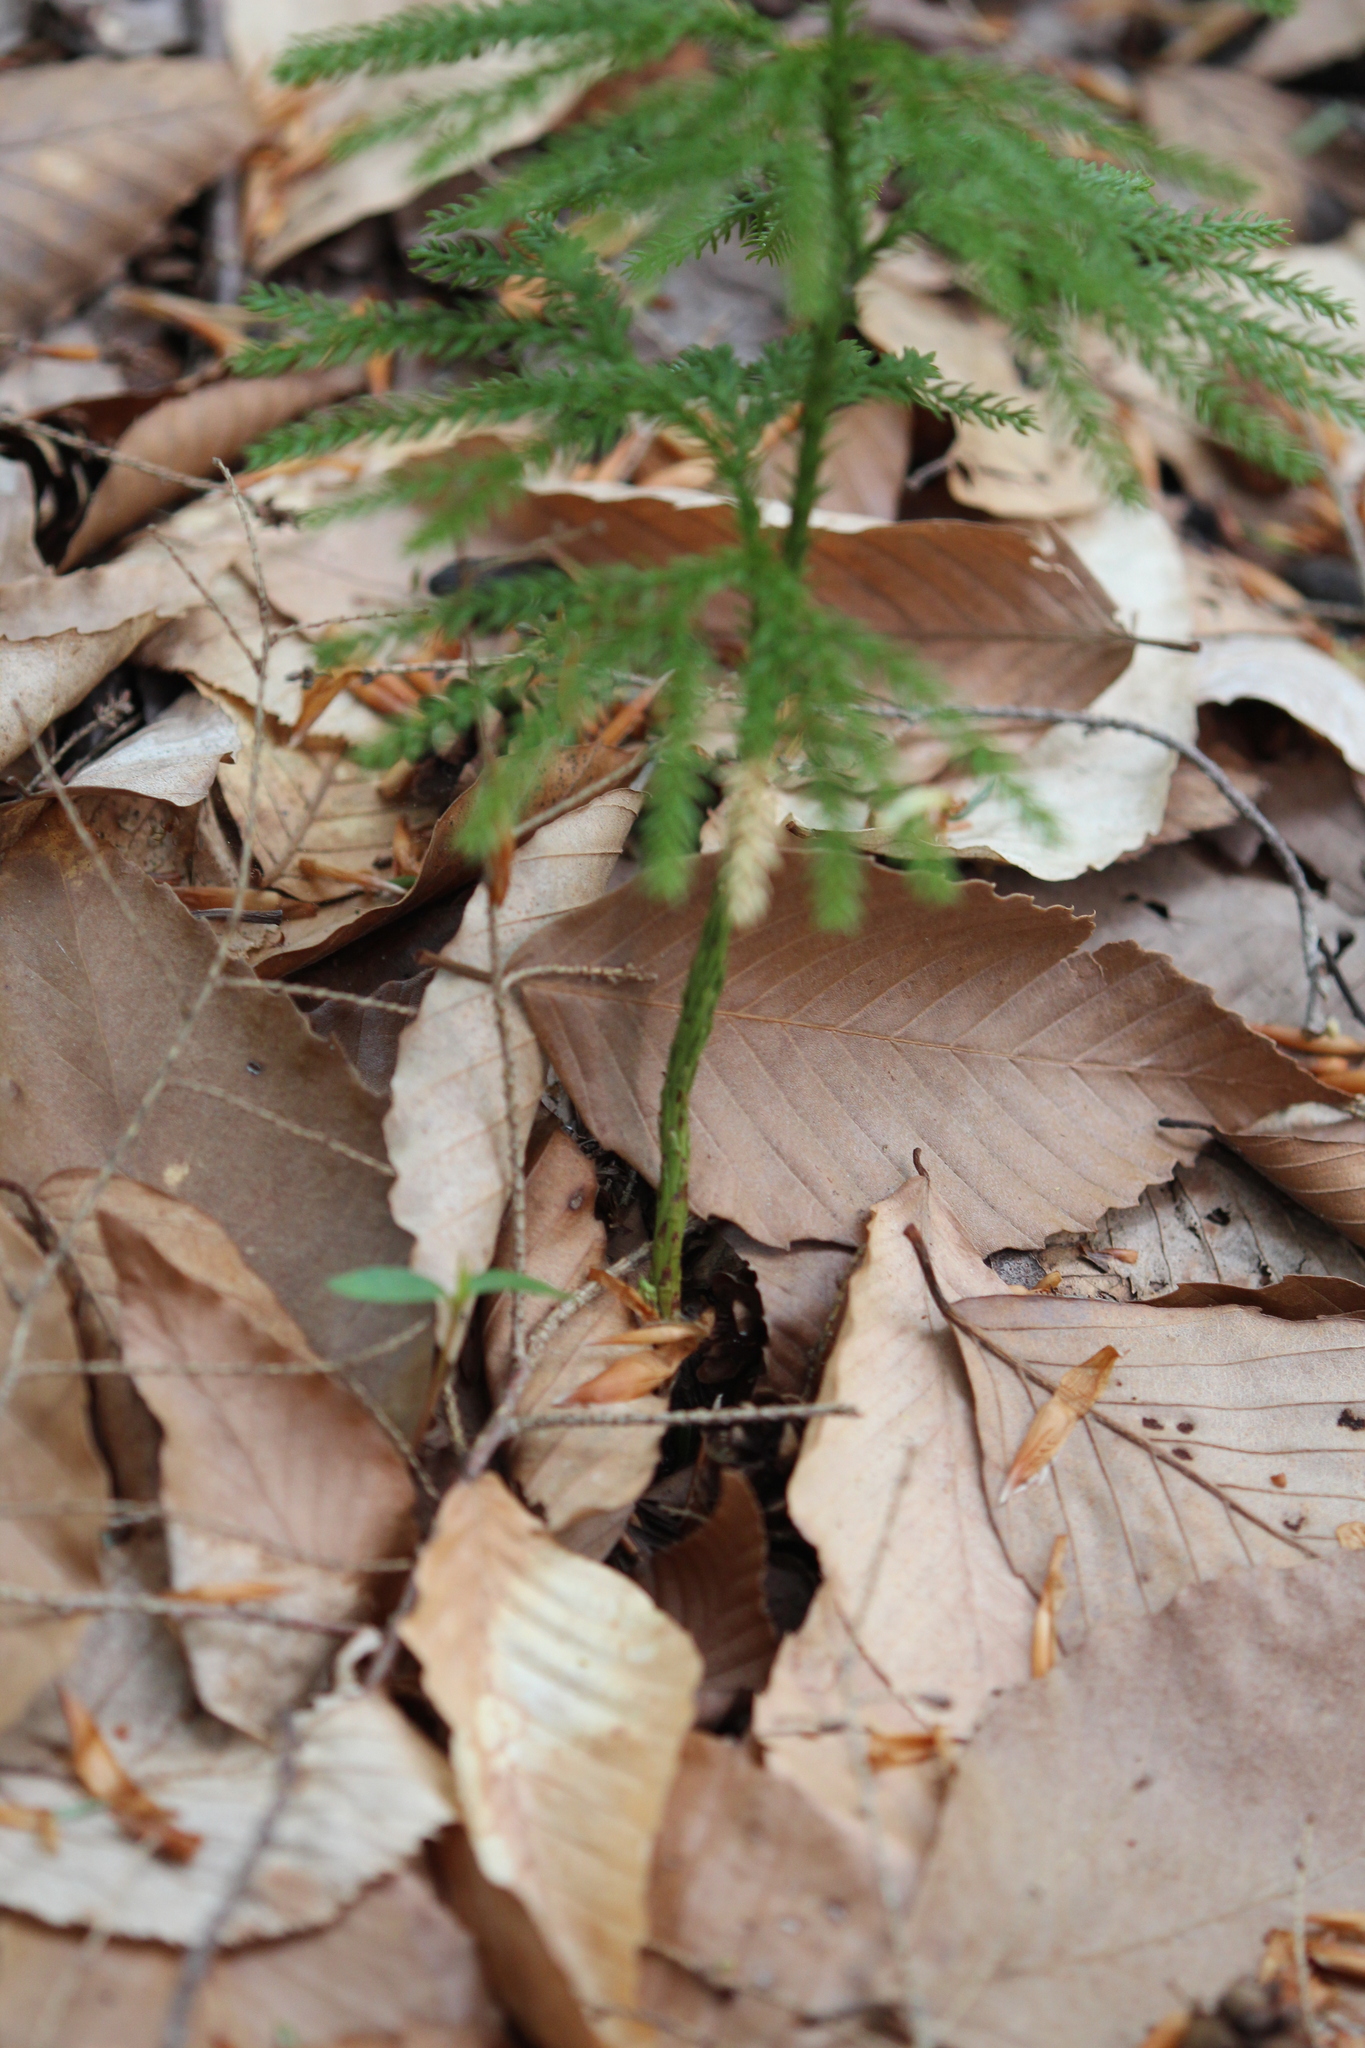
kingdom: Plantae
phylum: Tracheophyta
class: Lycopodiopsida
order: Lycopodiales
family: Lycopodiaceae
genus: Dendrolycopodium
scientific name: Dendrolycopodium obscurum
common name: Common ground-pine
